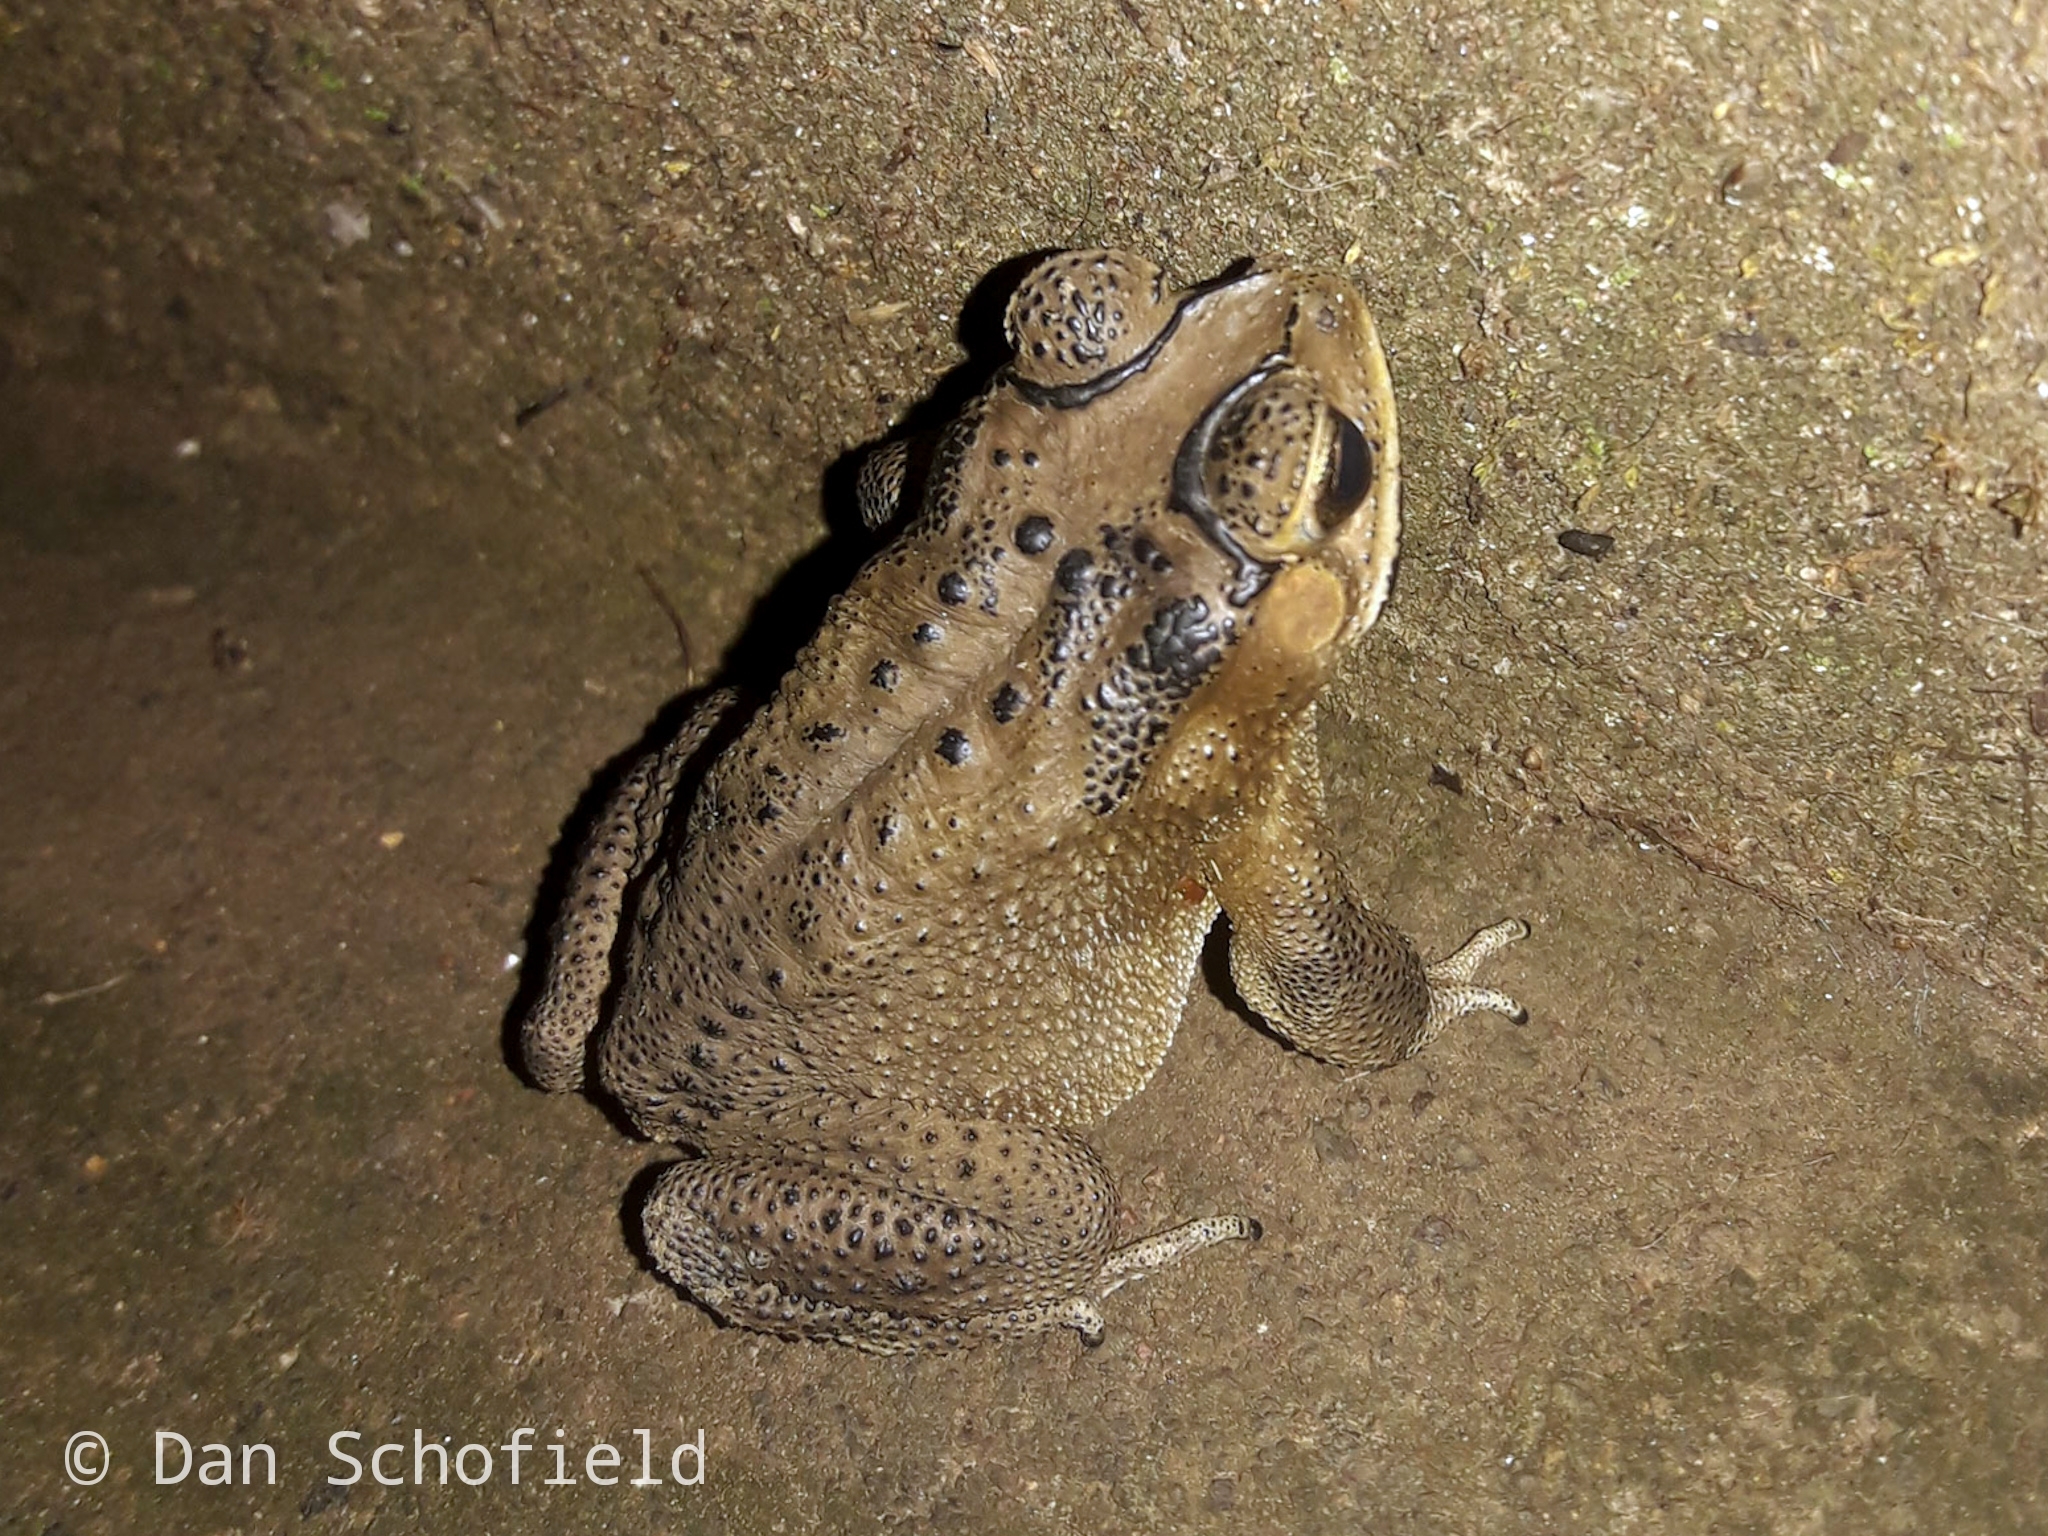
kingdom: Animalia
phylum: Chordata
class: Amphibia
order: Anura
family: Bufonidae
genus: Duttaphrynus
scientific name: Duttaphrynus melanostictus
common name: Common sunda toad
